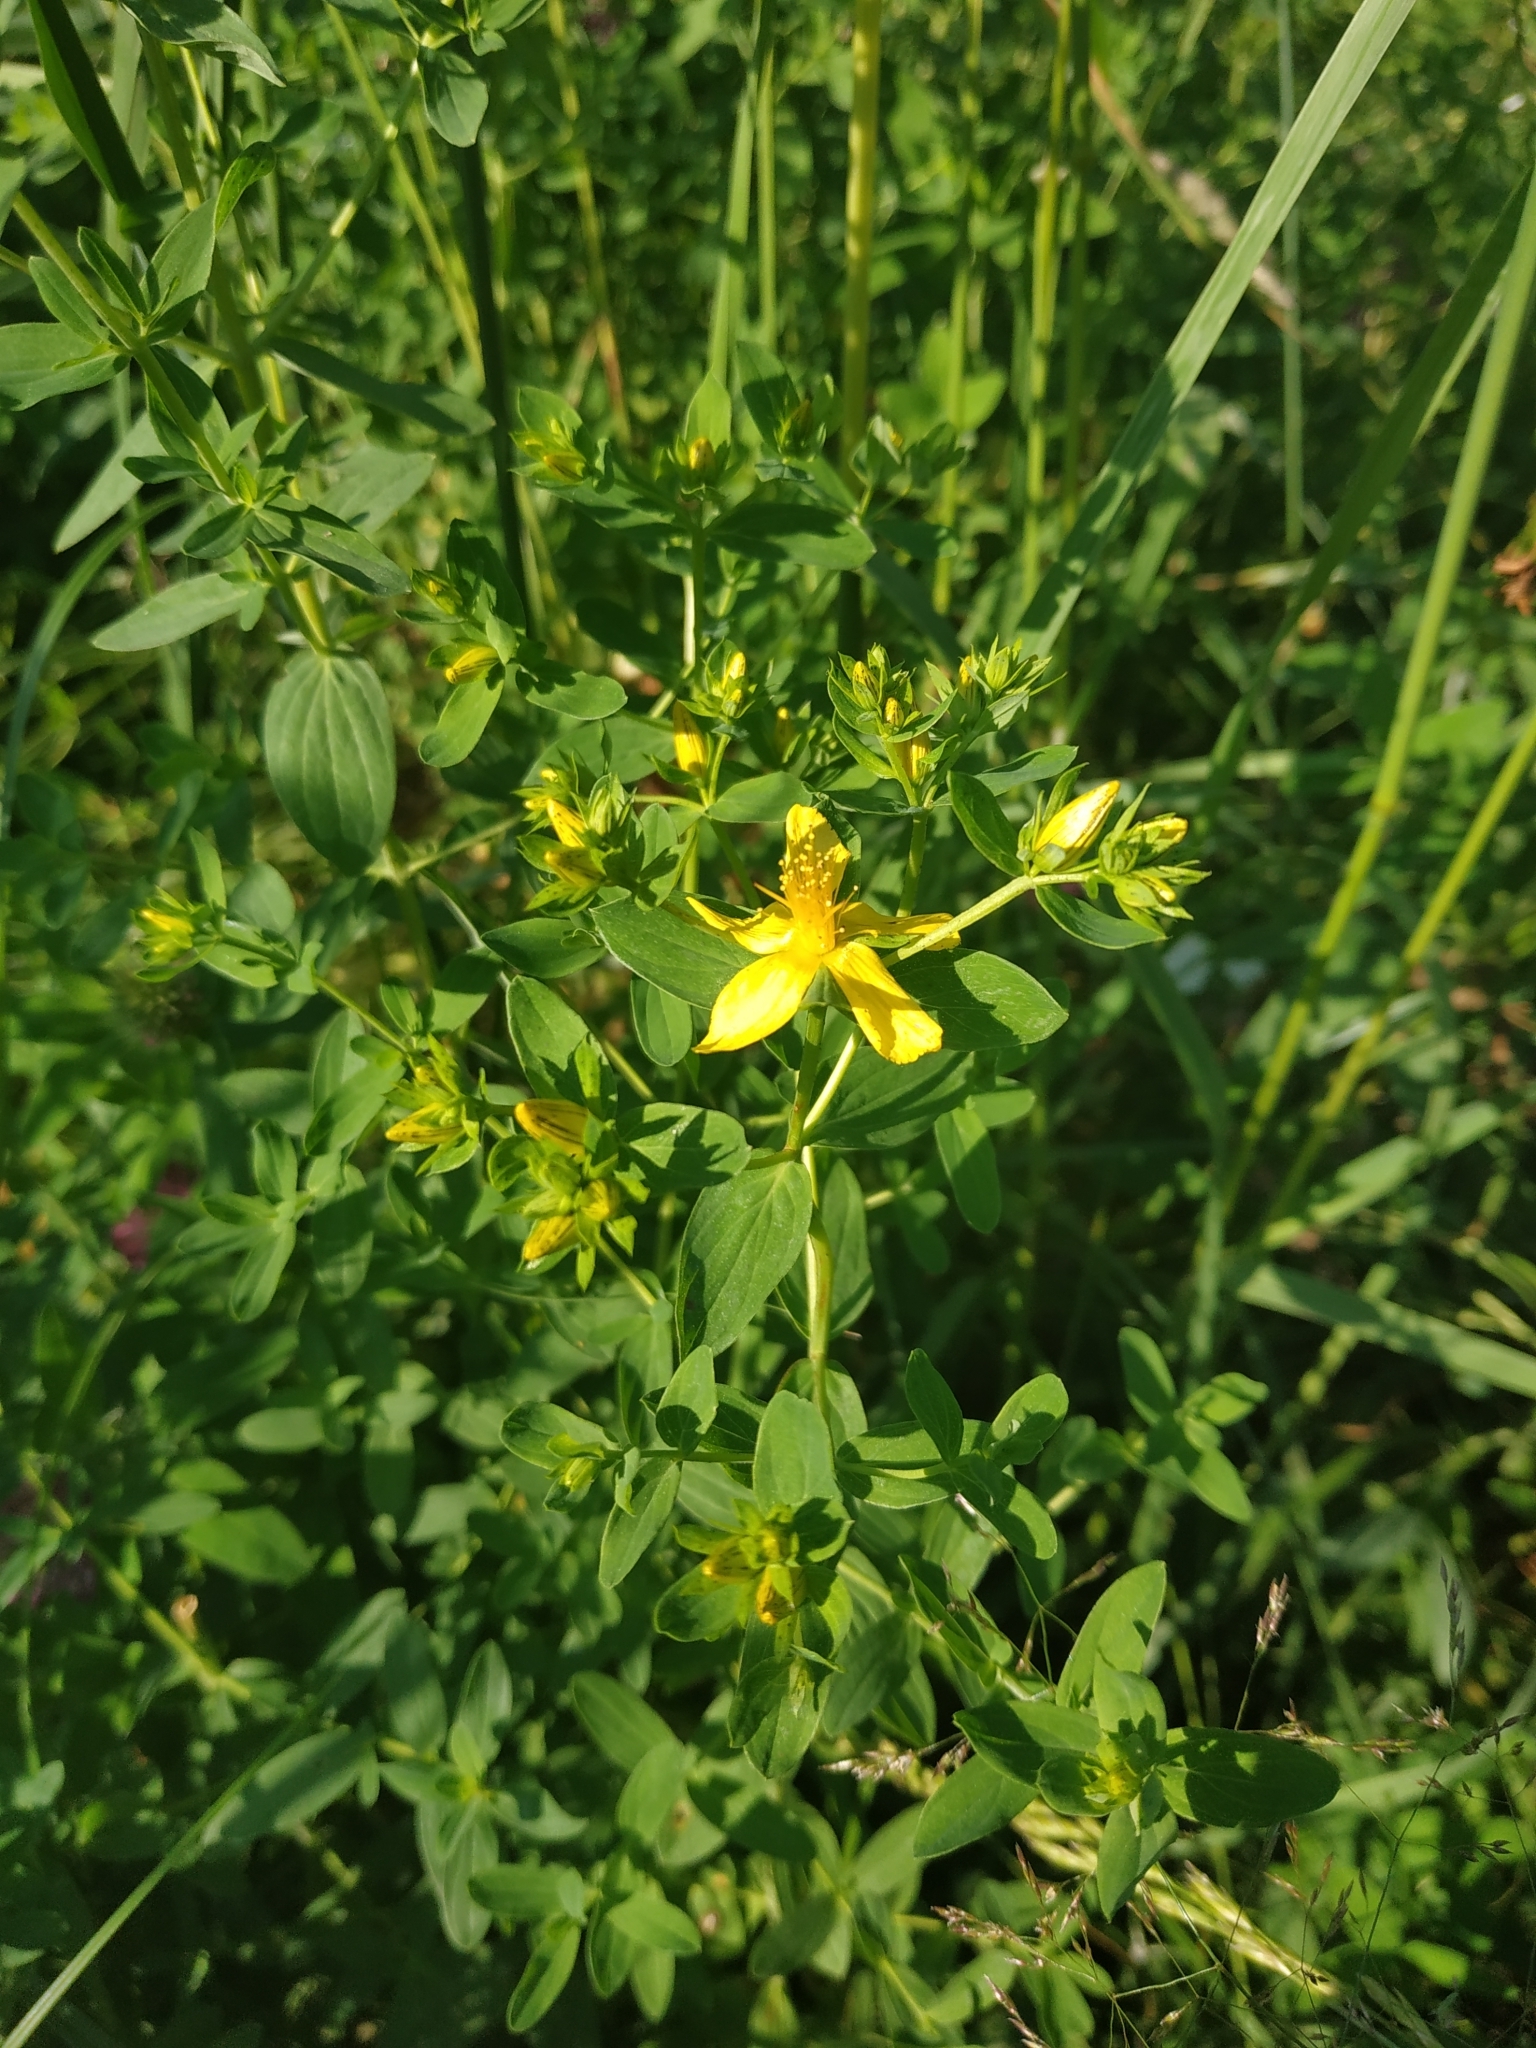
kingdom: Plantae
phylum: Tracheophyta
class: Magnoliopsida
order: Malpighiales
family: Hypericaceae
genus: Hypericum
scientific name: Hypericum perforatum
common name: Common st. johnswort
